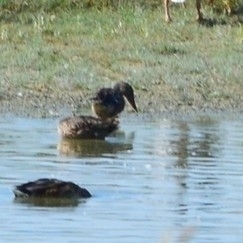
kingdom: Animalia
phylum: Chordata
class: Aves
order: Anseriformes
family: Anatidae
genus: Spatula
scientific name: Spatula clypeata
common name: Northern shoveler
